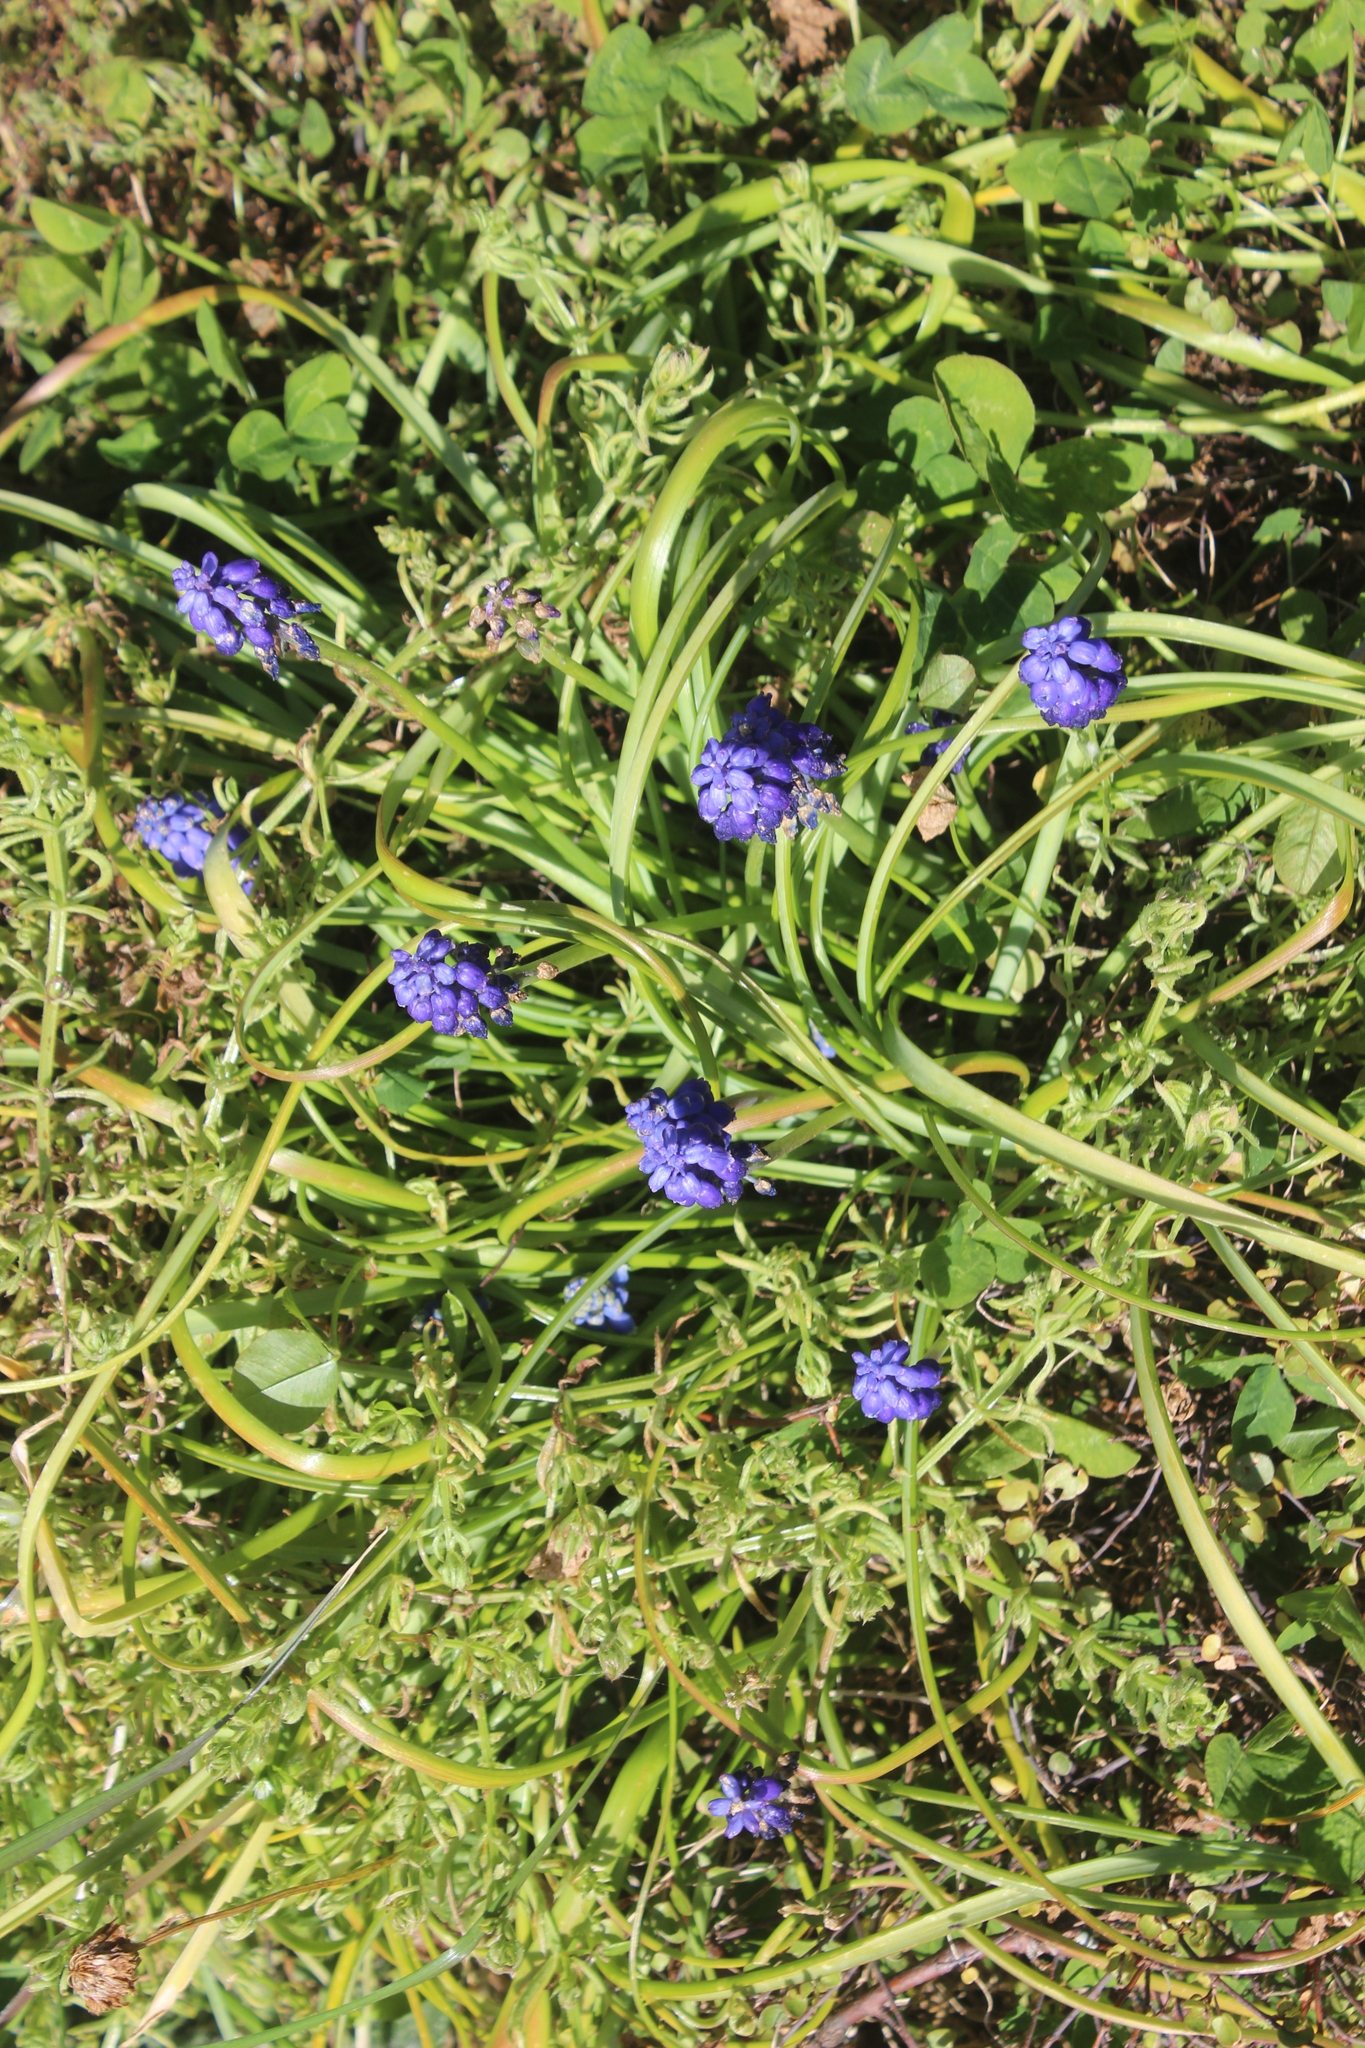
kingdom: Plantae
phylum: Tracheophyta
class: Liliopsida
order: Asparagales
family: Asparagaceae
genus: Muscari
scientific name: Muscari armeniacum
